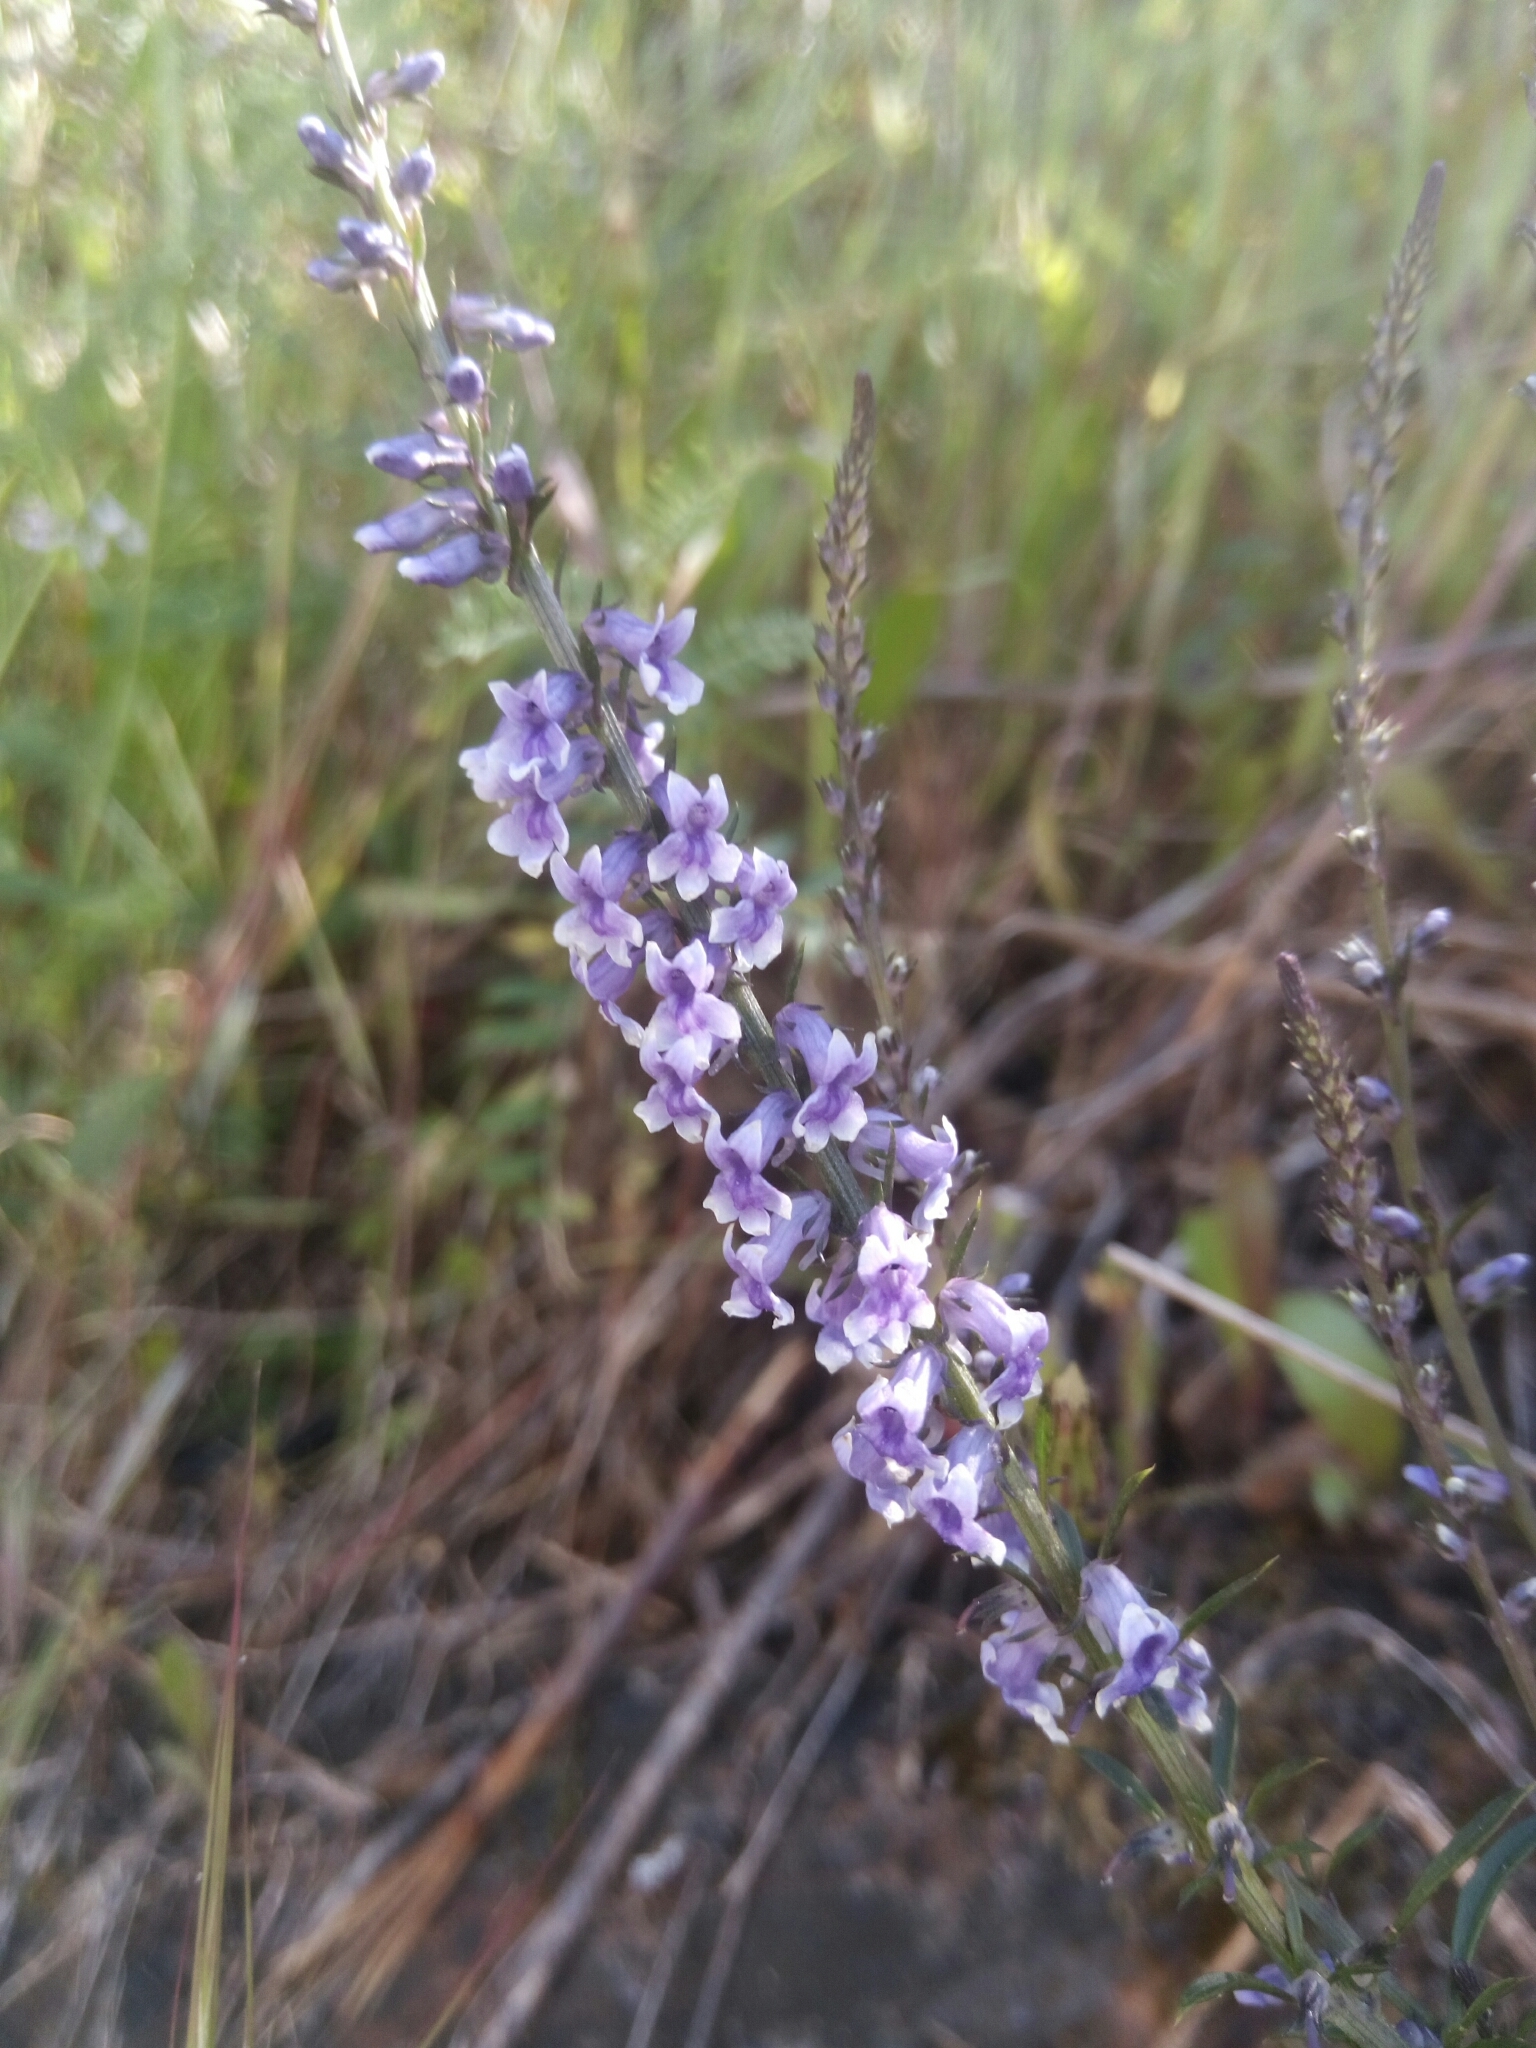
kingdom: Plantae
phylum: Tracheophyta
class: Magnoliopsida
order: Lamiales
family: Plantaginaceae
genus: Anarrhinum
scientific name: Anarrhinum bellidifolium
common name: Daisy-leaved toadflax
